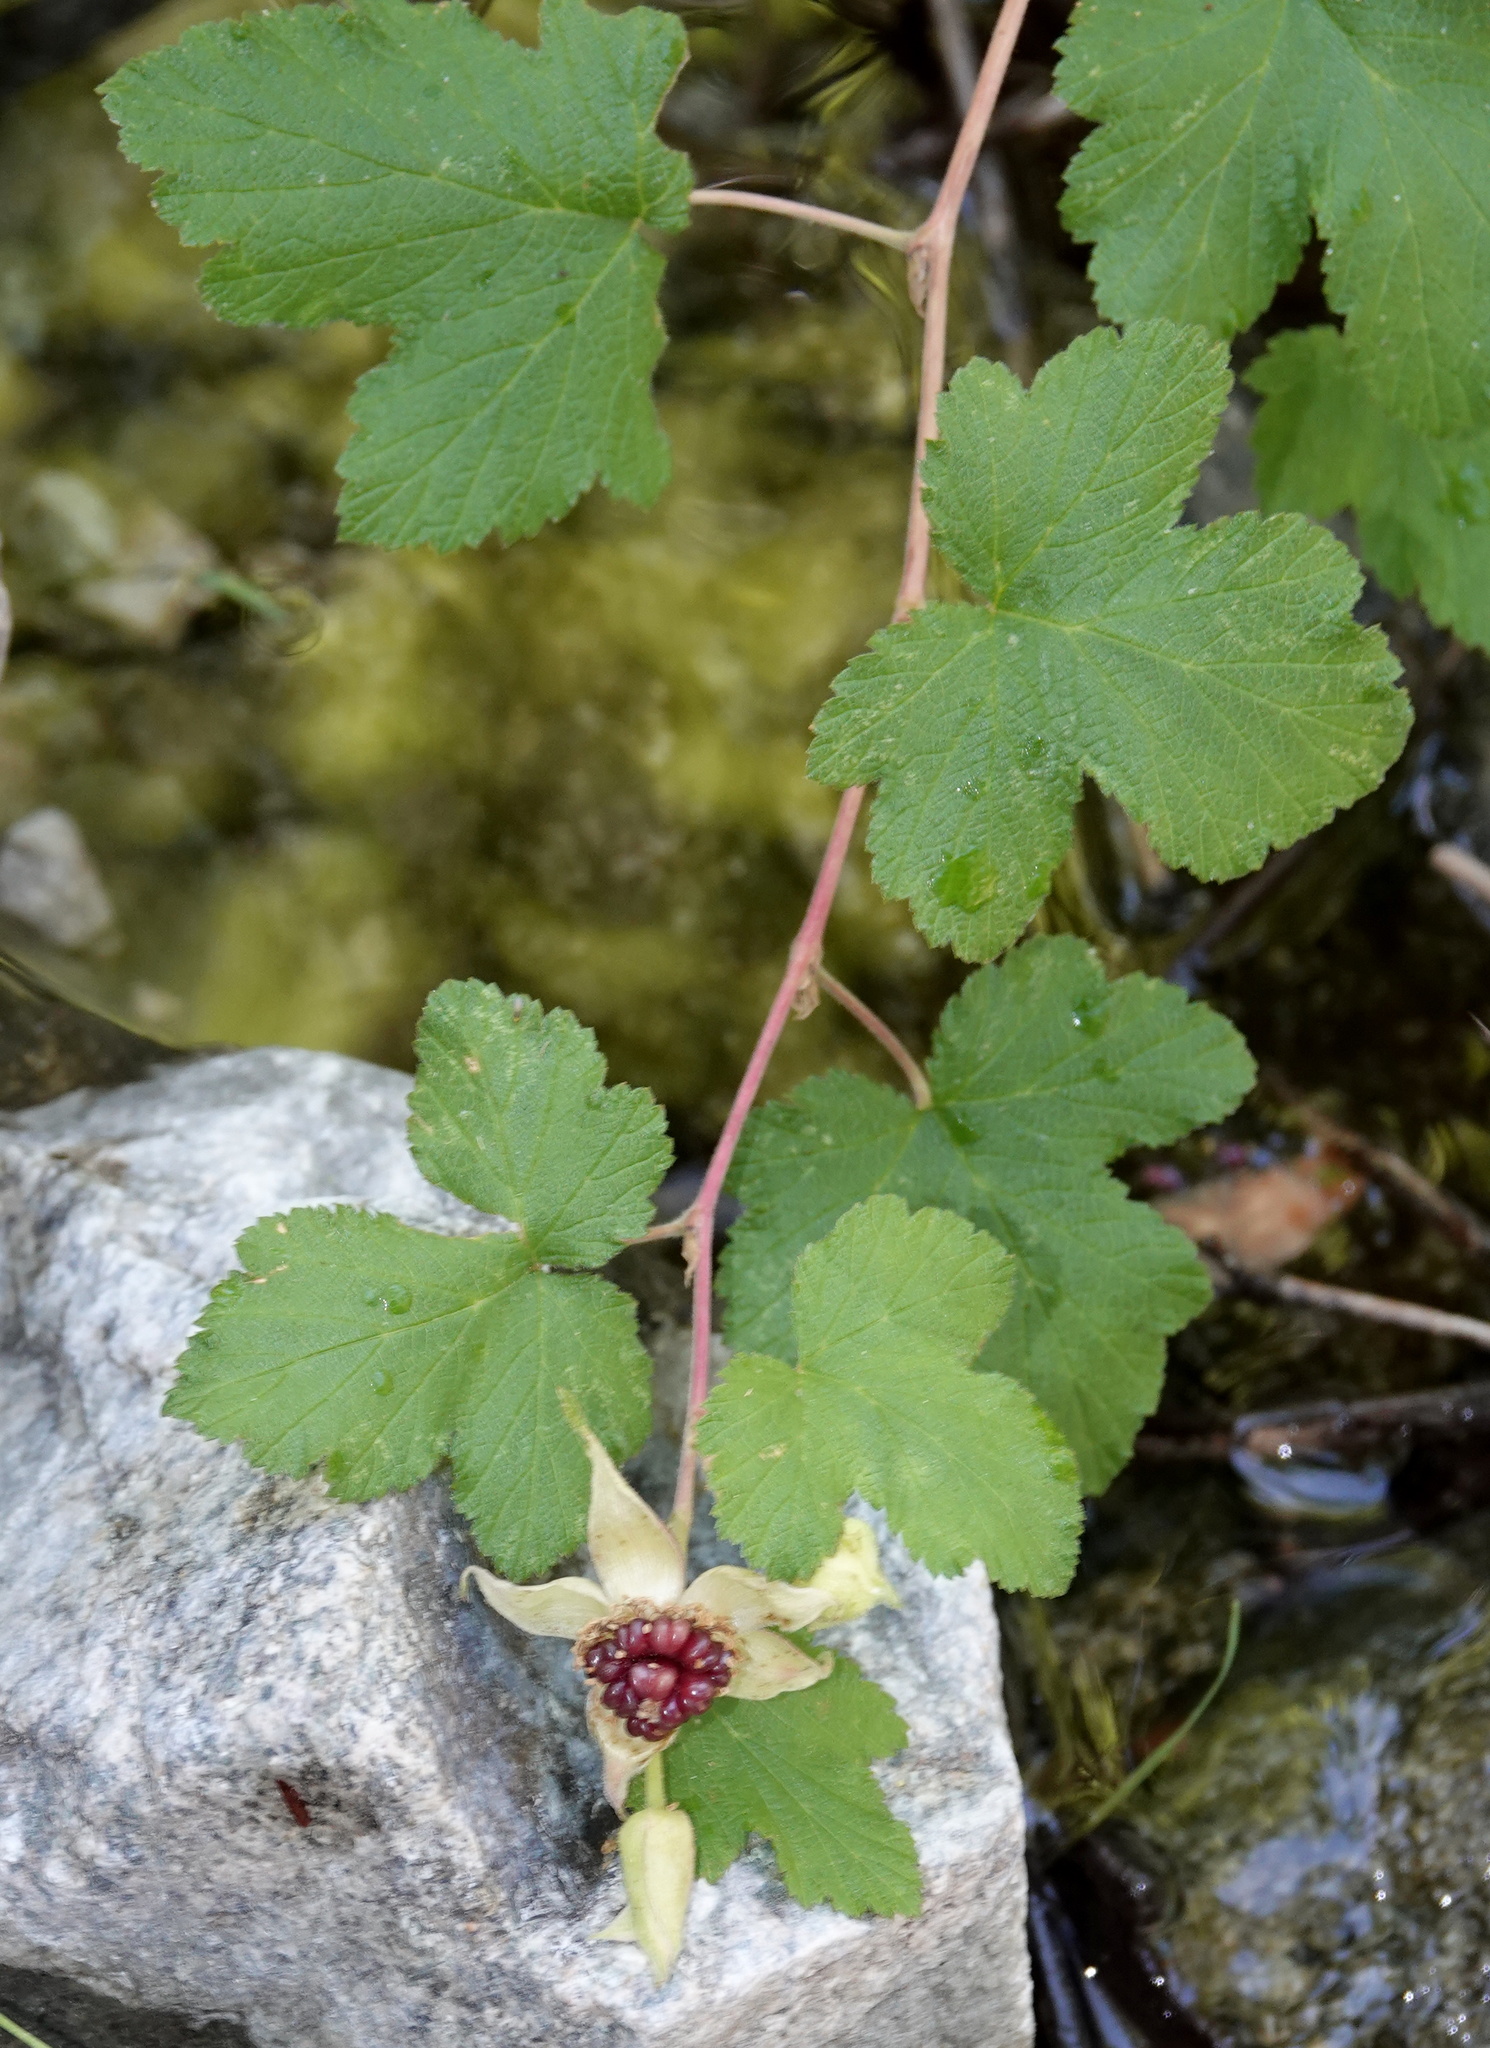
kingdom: Plantae
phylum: Tracheophyta
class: Magnoliopsida
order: Rosales
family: Rosaceae
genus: Rubus
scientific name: Rubus neomexicanus
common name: New mexico raspberry
